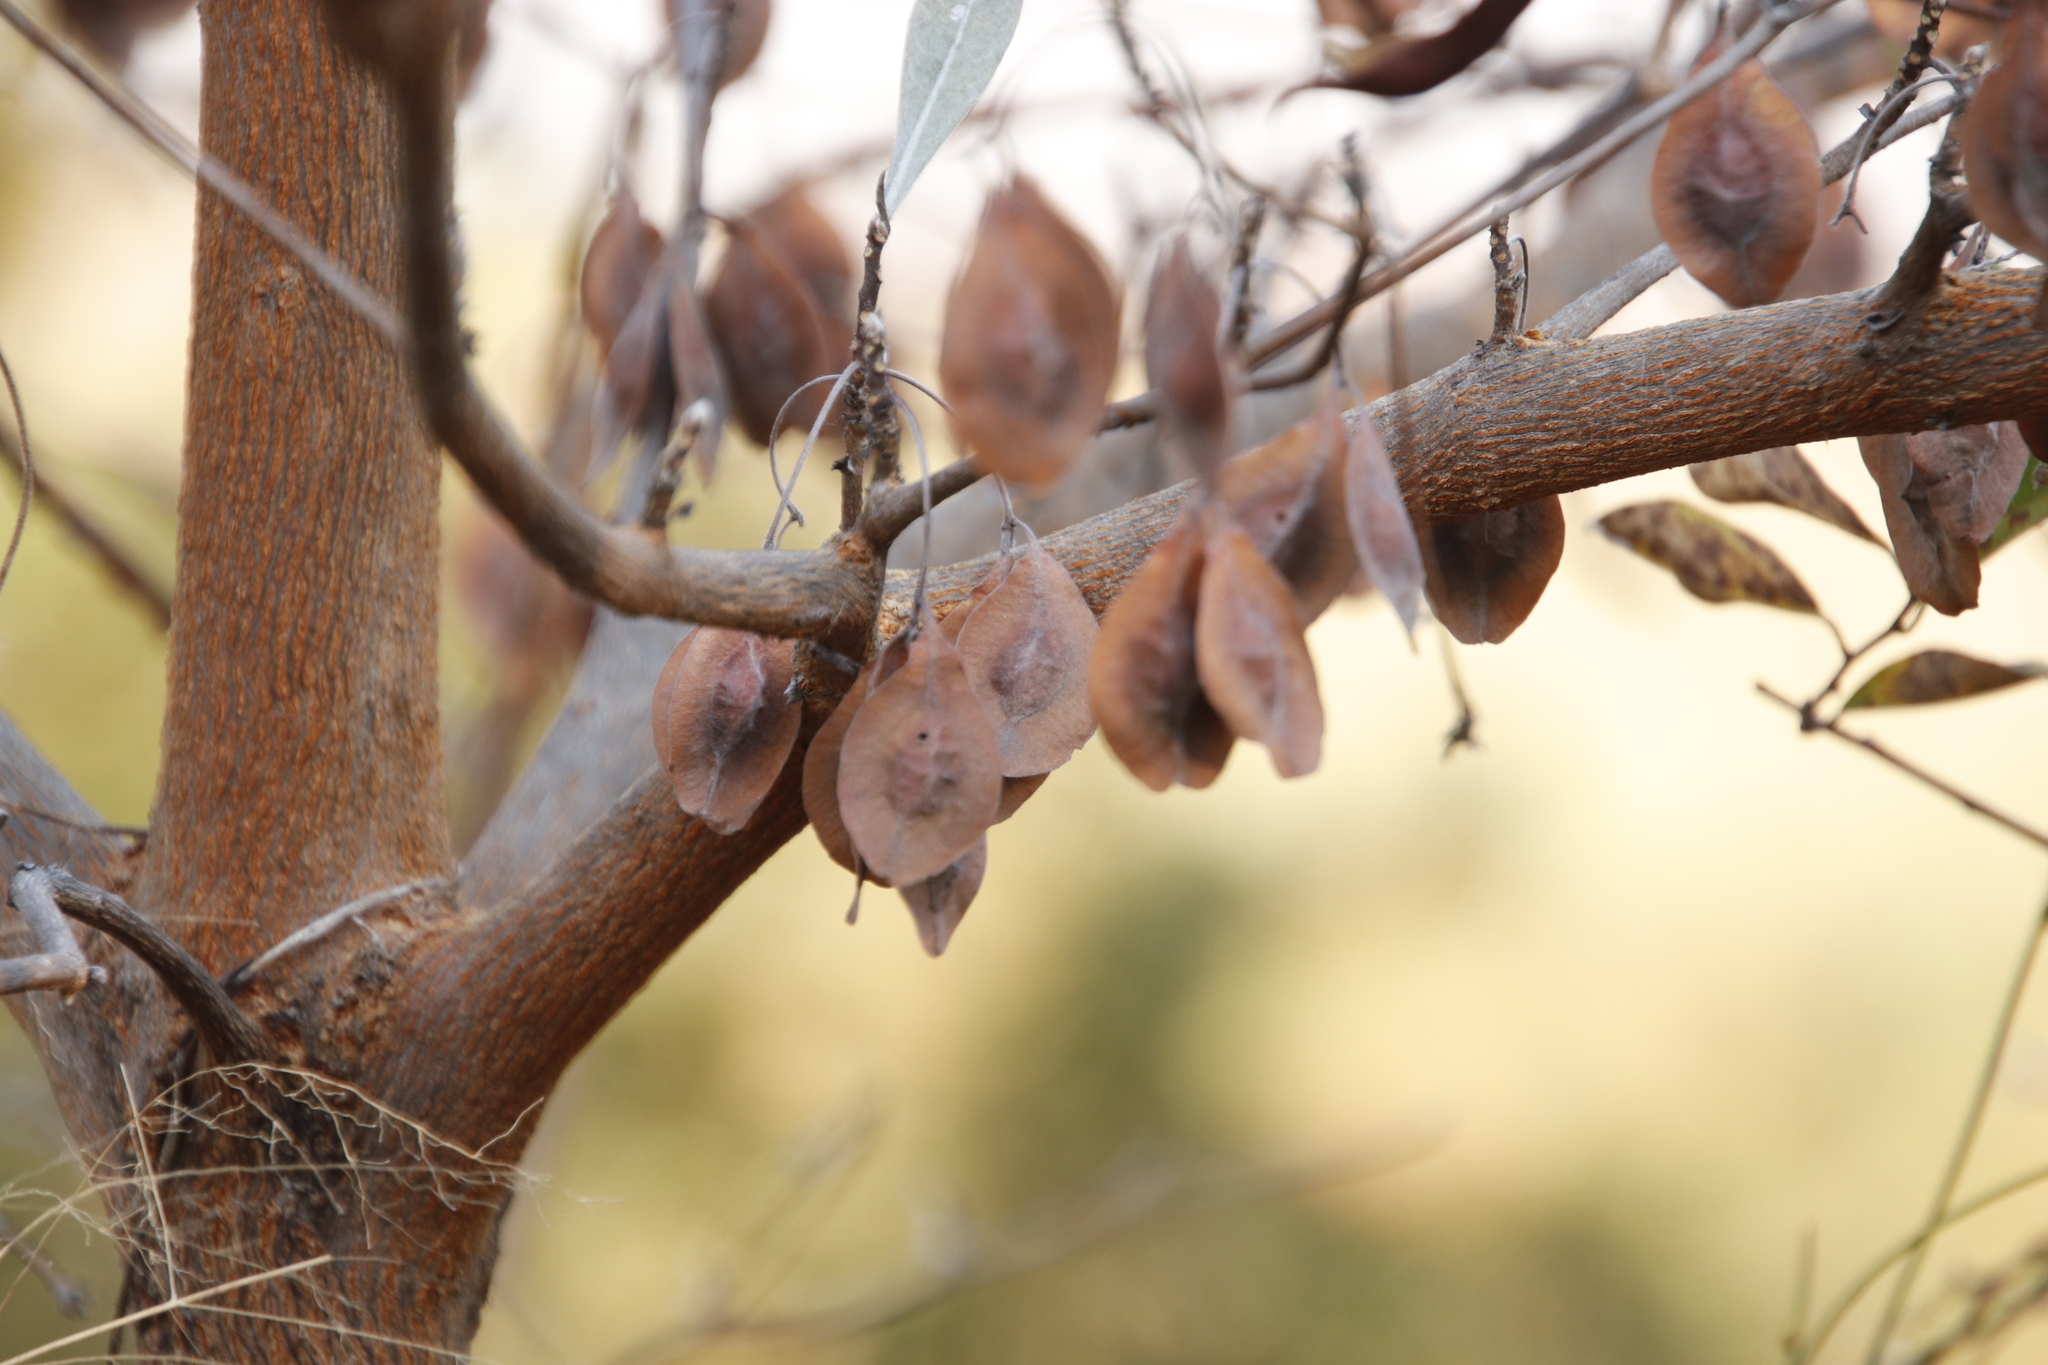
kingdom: Plantae
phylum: Tracheophyta
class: Magnoliopsida
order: Myrtales
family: Combretaceae
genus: Terminalia
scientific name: Terminalia brachystemma
